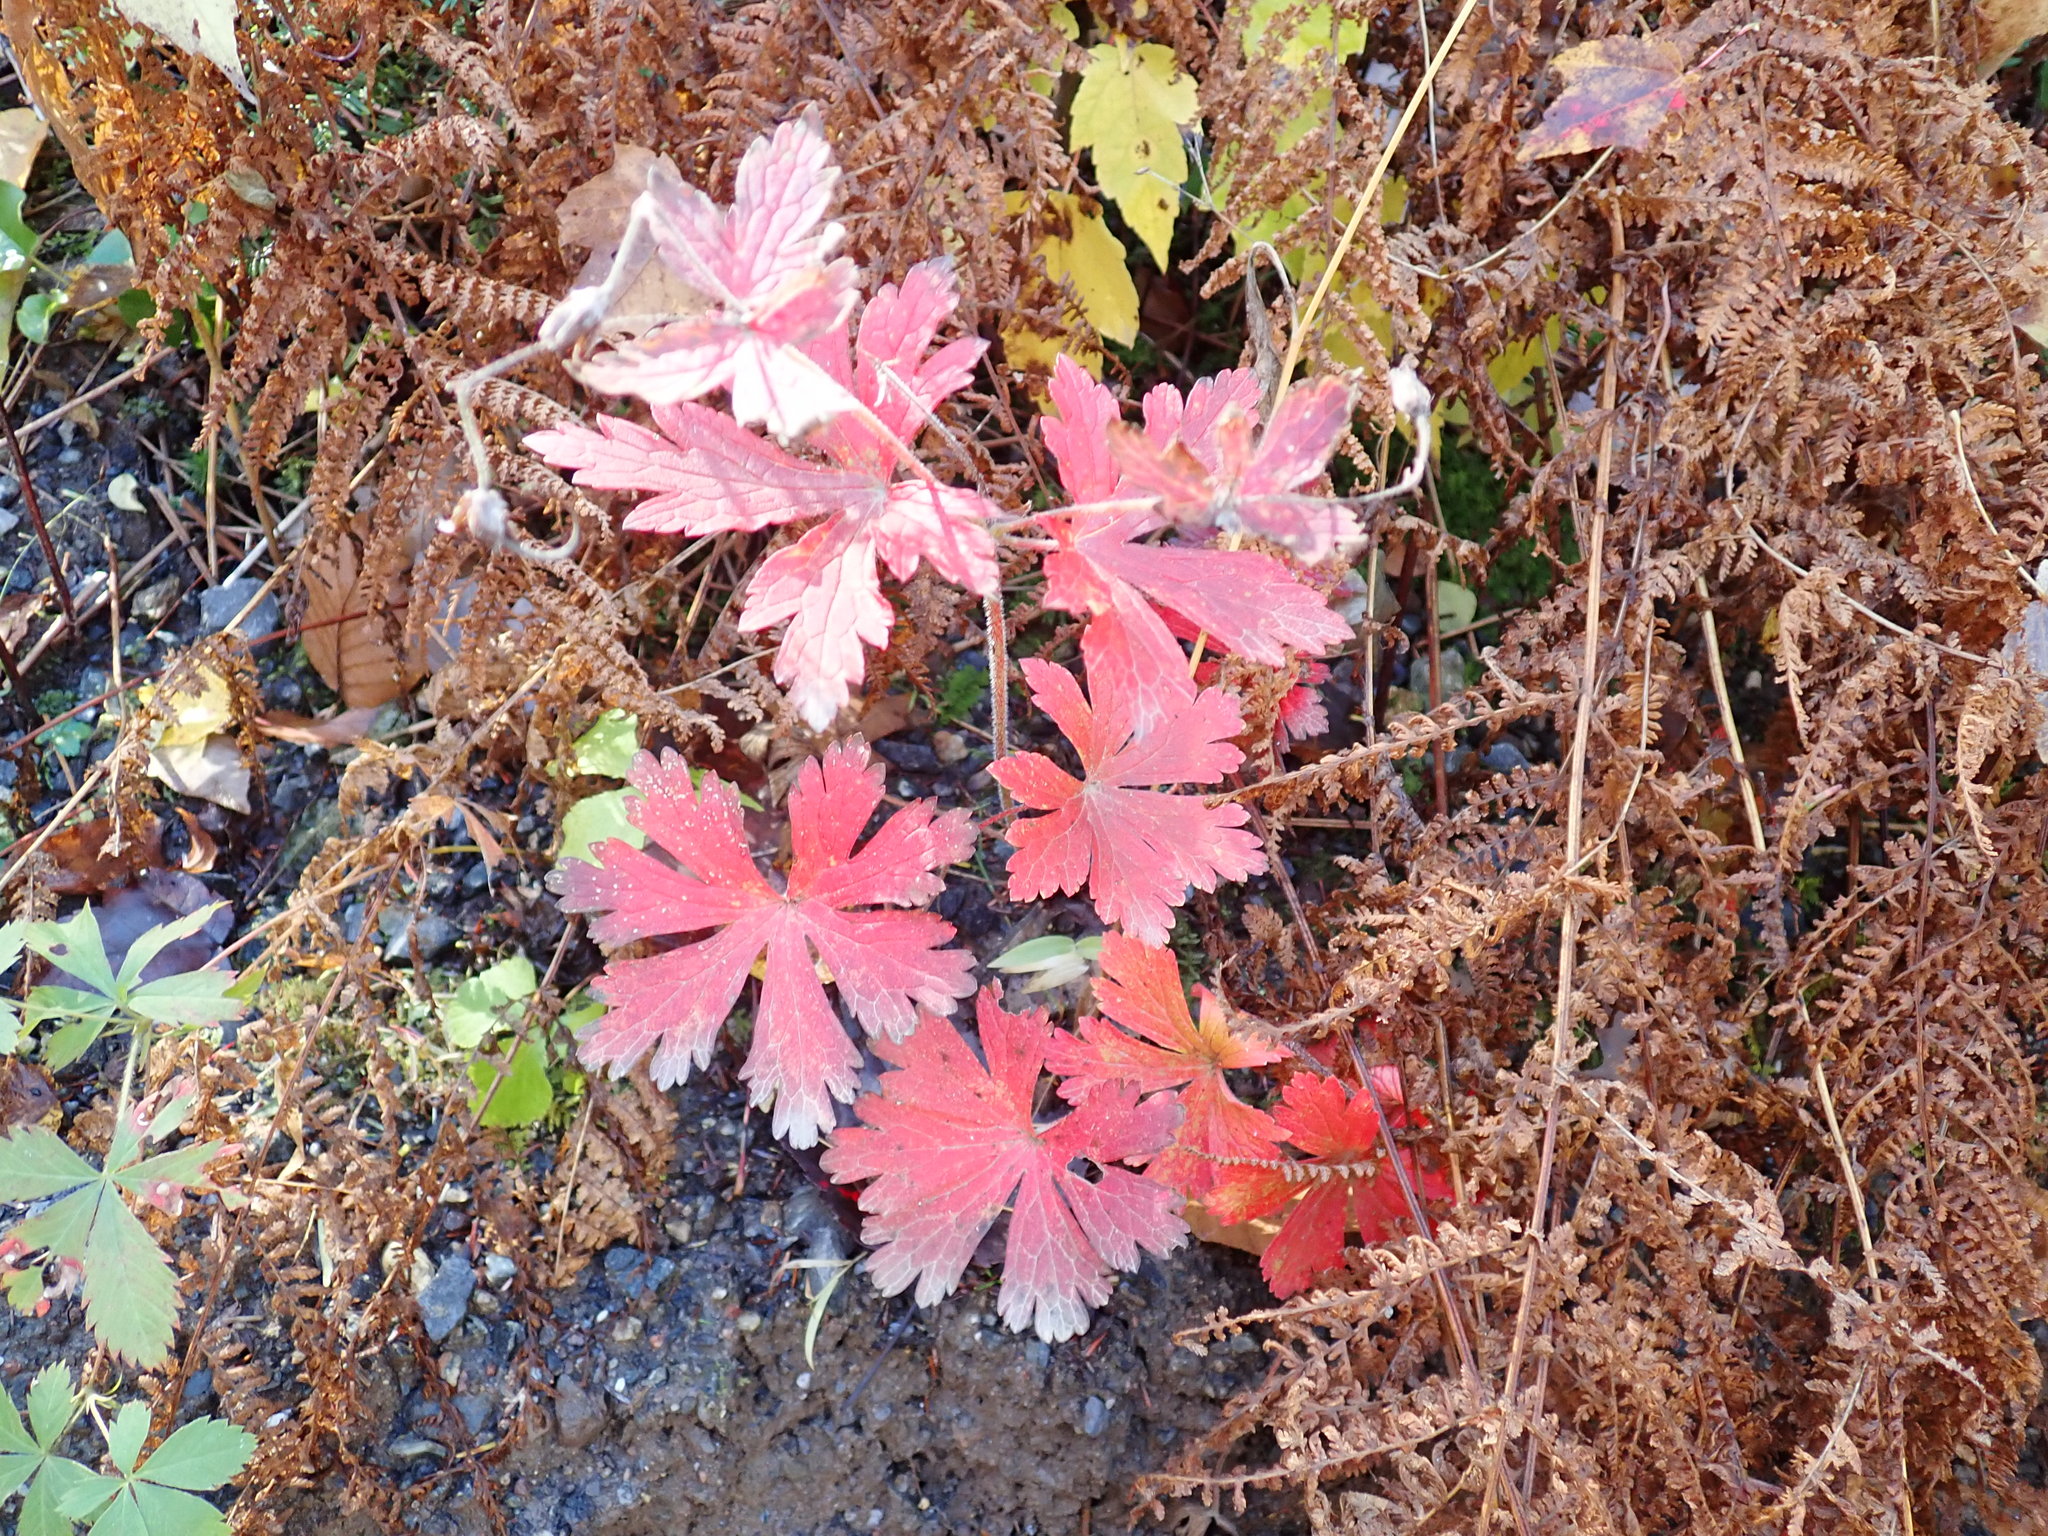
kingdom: Plantae
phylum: Tracheophyta
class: Magnoliopsida
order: Geraniales
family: Geraniaceae
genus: Geranium
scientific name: Geranium maculatum
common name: Spotted geranium
